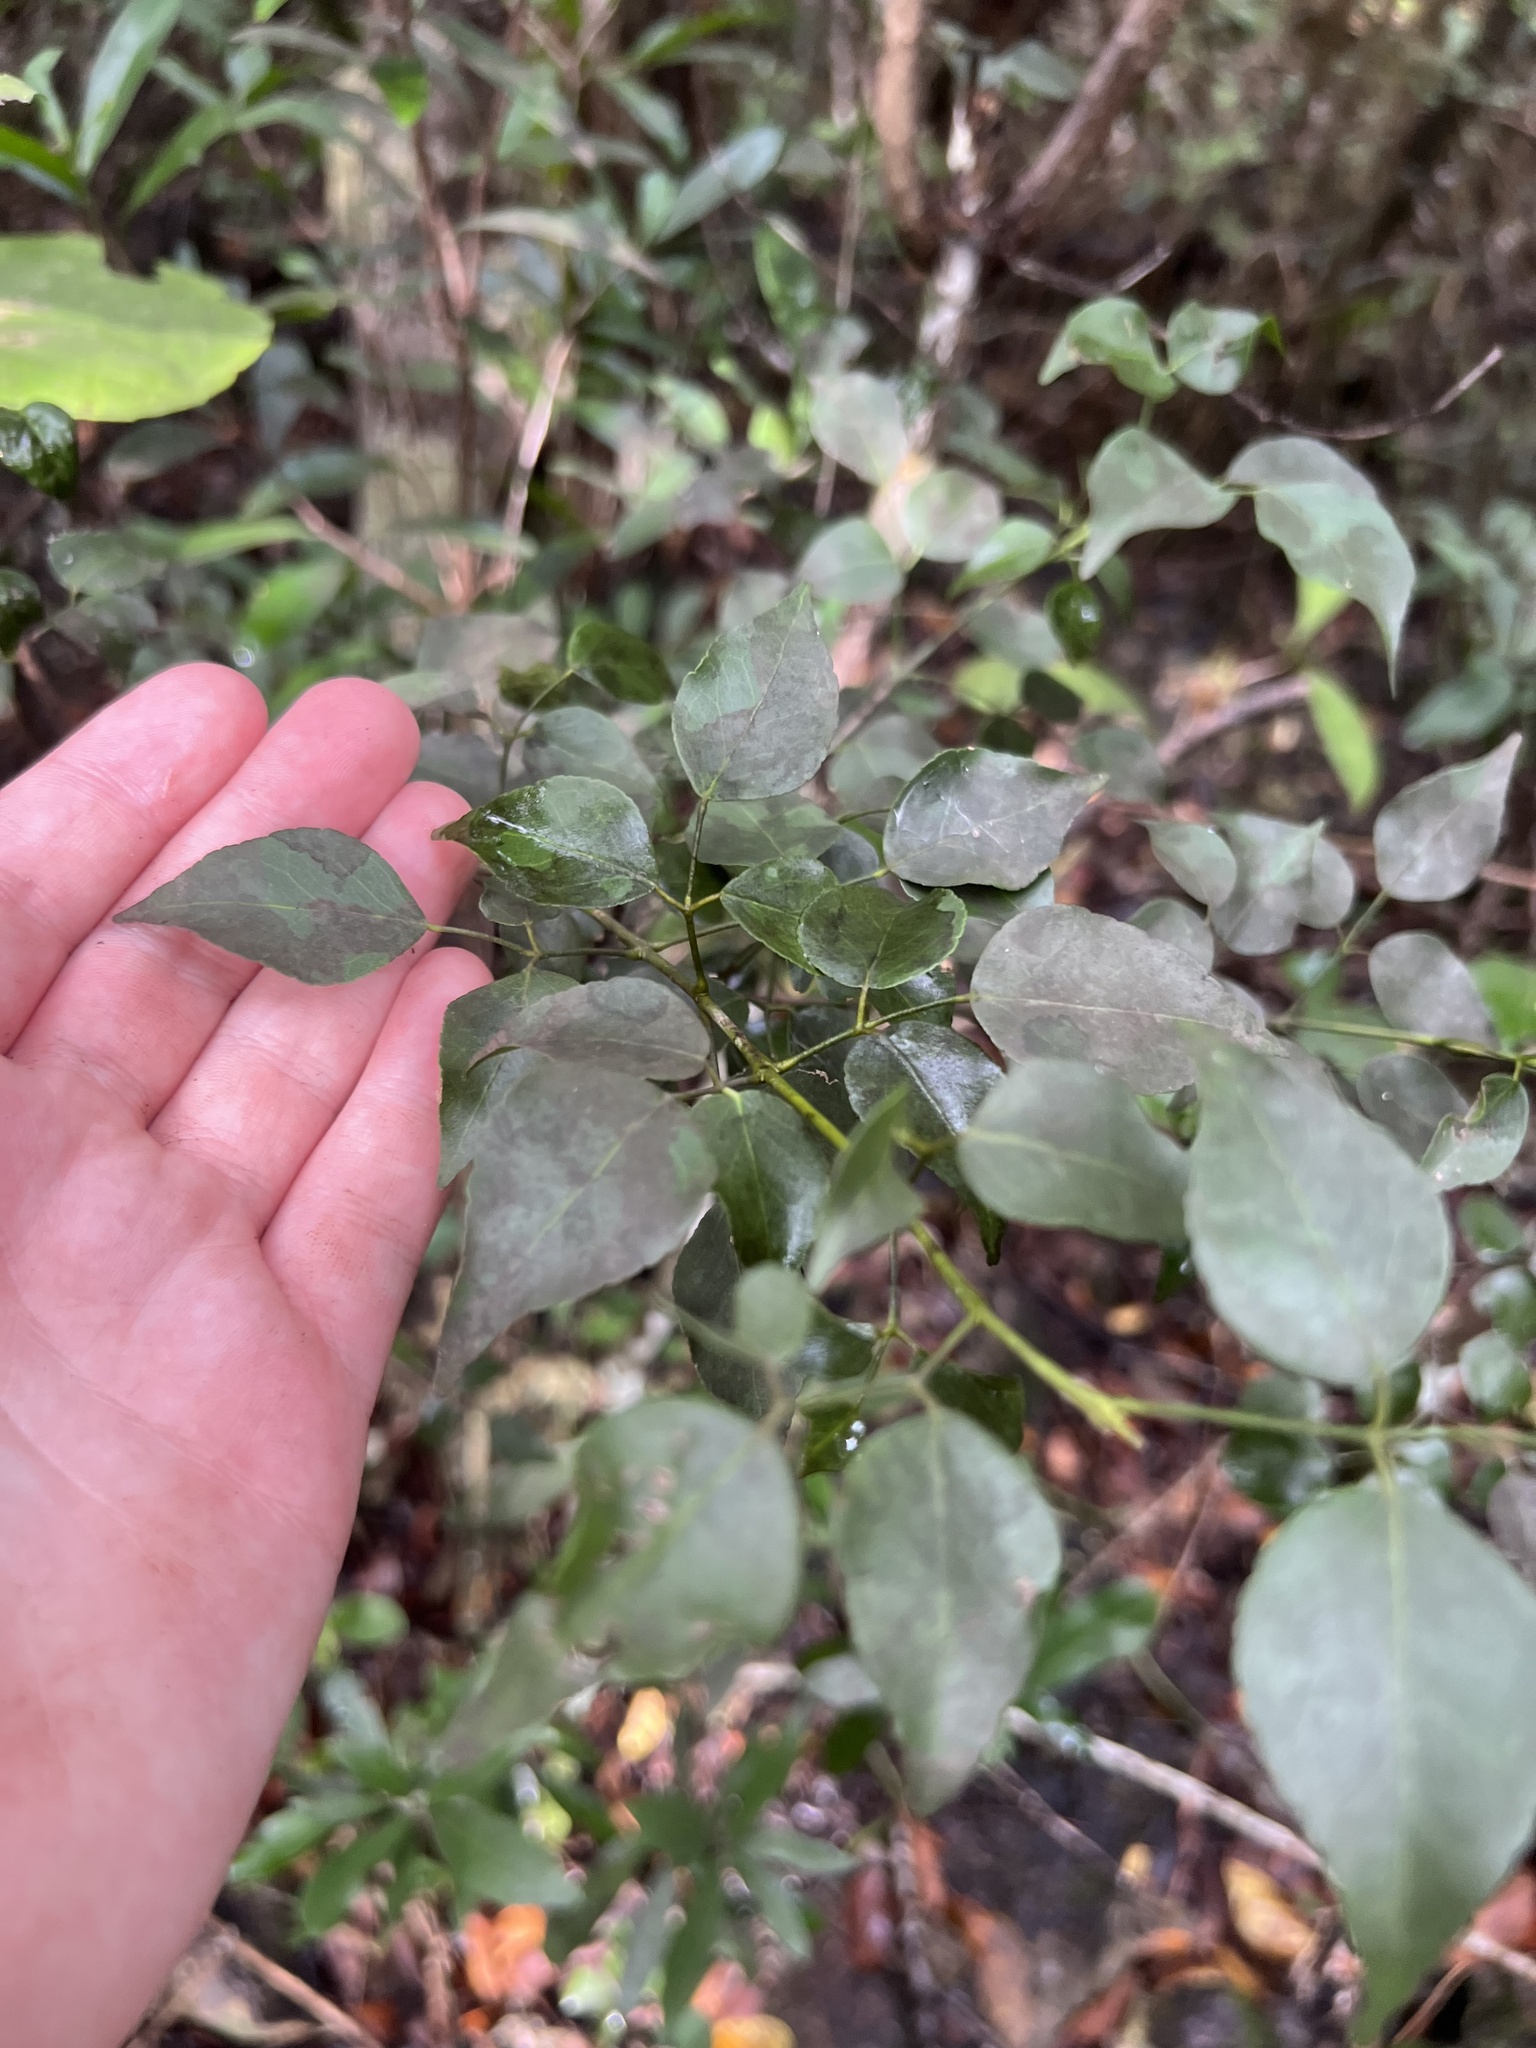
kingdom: Plantae
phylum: Tracheophyta
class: Magnoliopsida
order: Sapindales
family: Rutaceae
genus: Amyris
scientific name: Amyris elemifera
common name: Sea amyris
